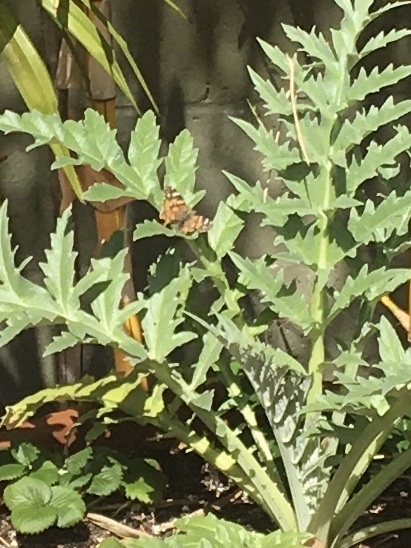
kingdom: Animalia
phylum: Arthropoda
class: Insecta
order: Lepidoptera
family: Nymphalidae
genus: Vanessa
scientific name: Vanessa cardui
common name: Painted lady
